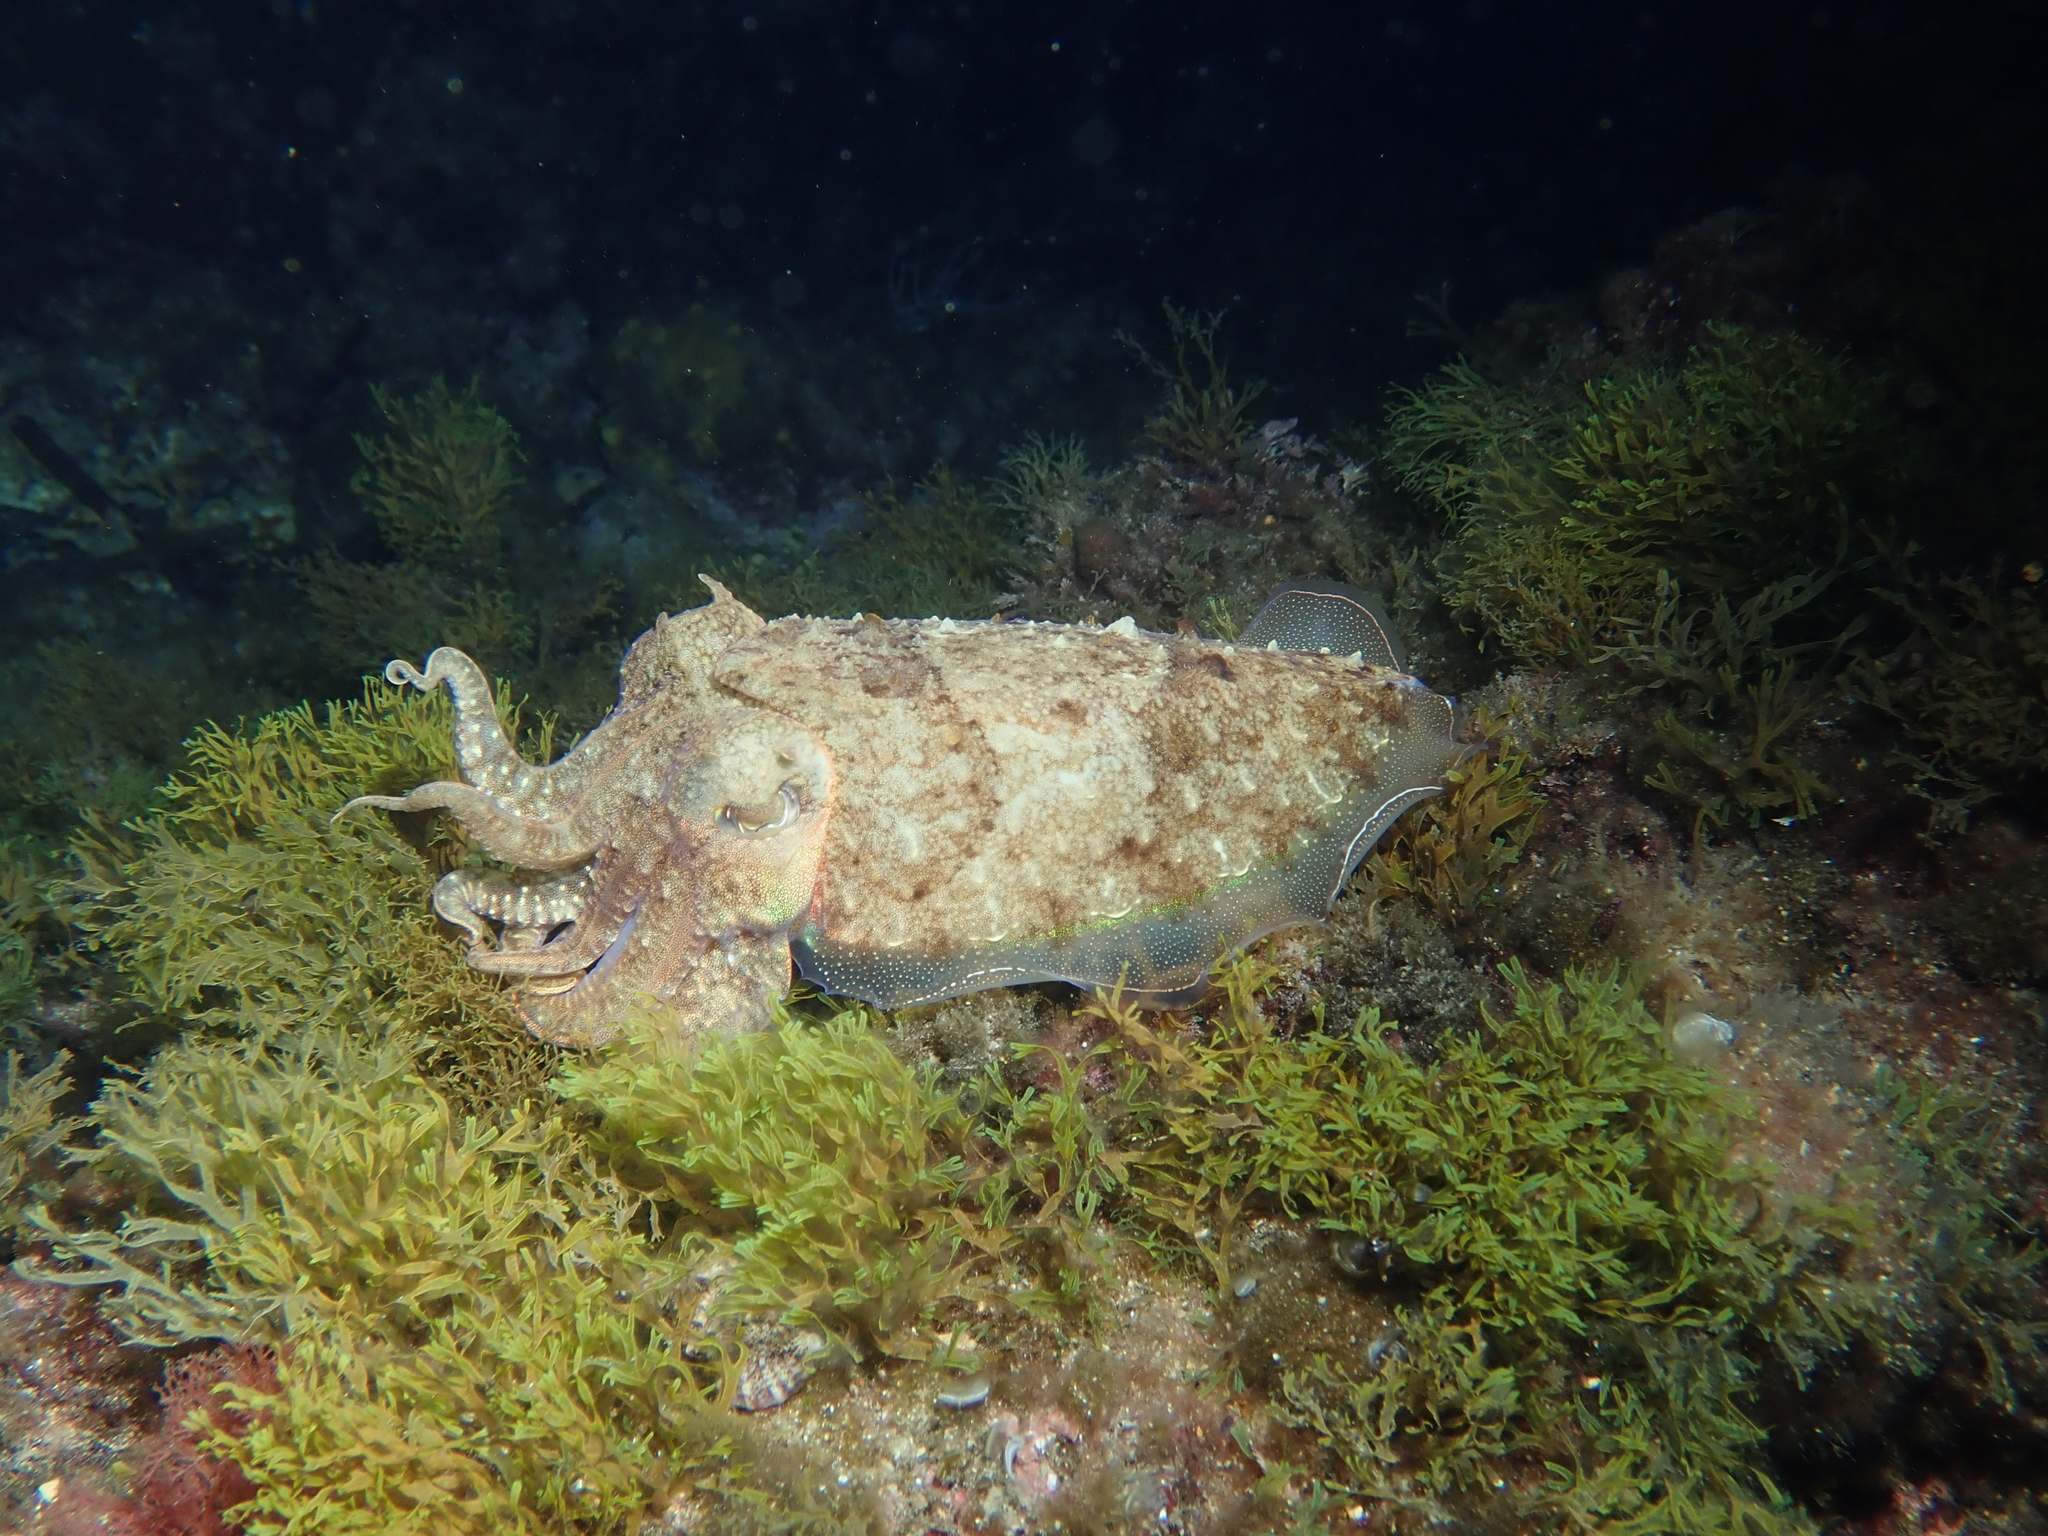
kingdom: Animalia
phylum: Mollusca
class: Cephalopoda
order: Sepiida
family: Sepiidae
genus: Sepia
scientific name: Sepia officinalis
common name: Common cuttlefish
